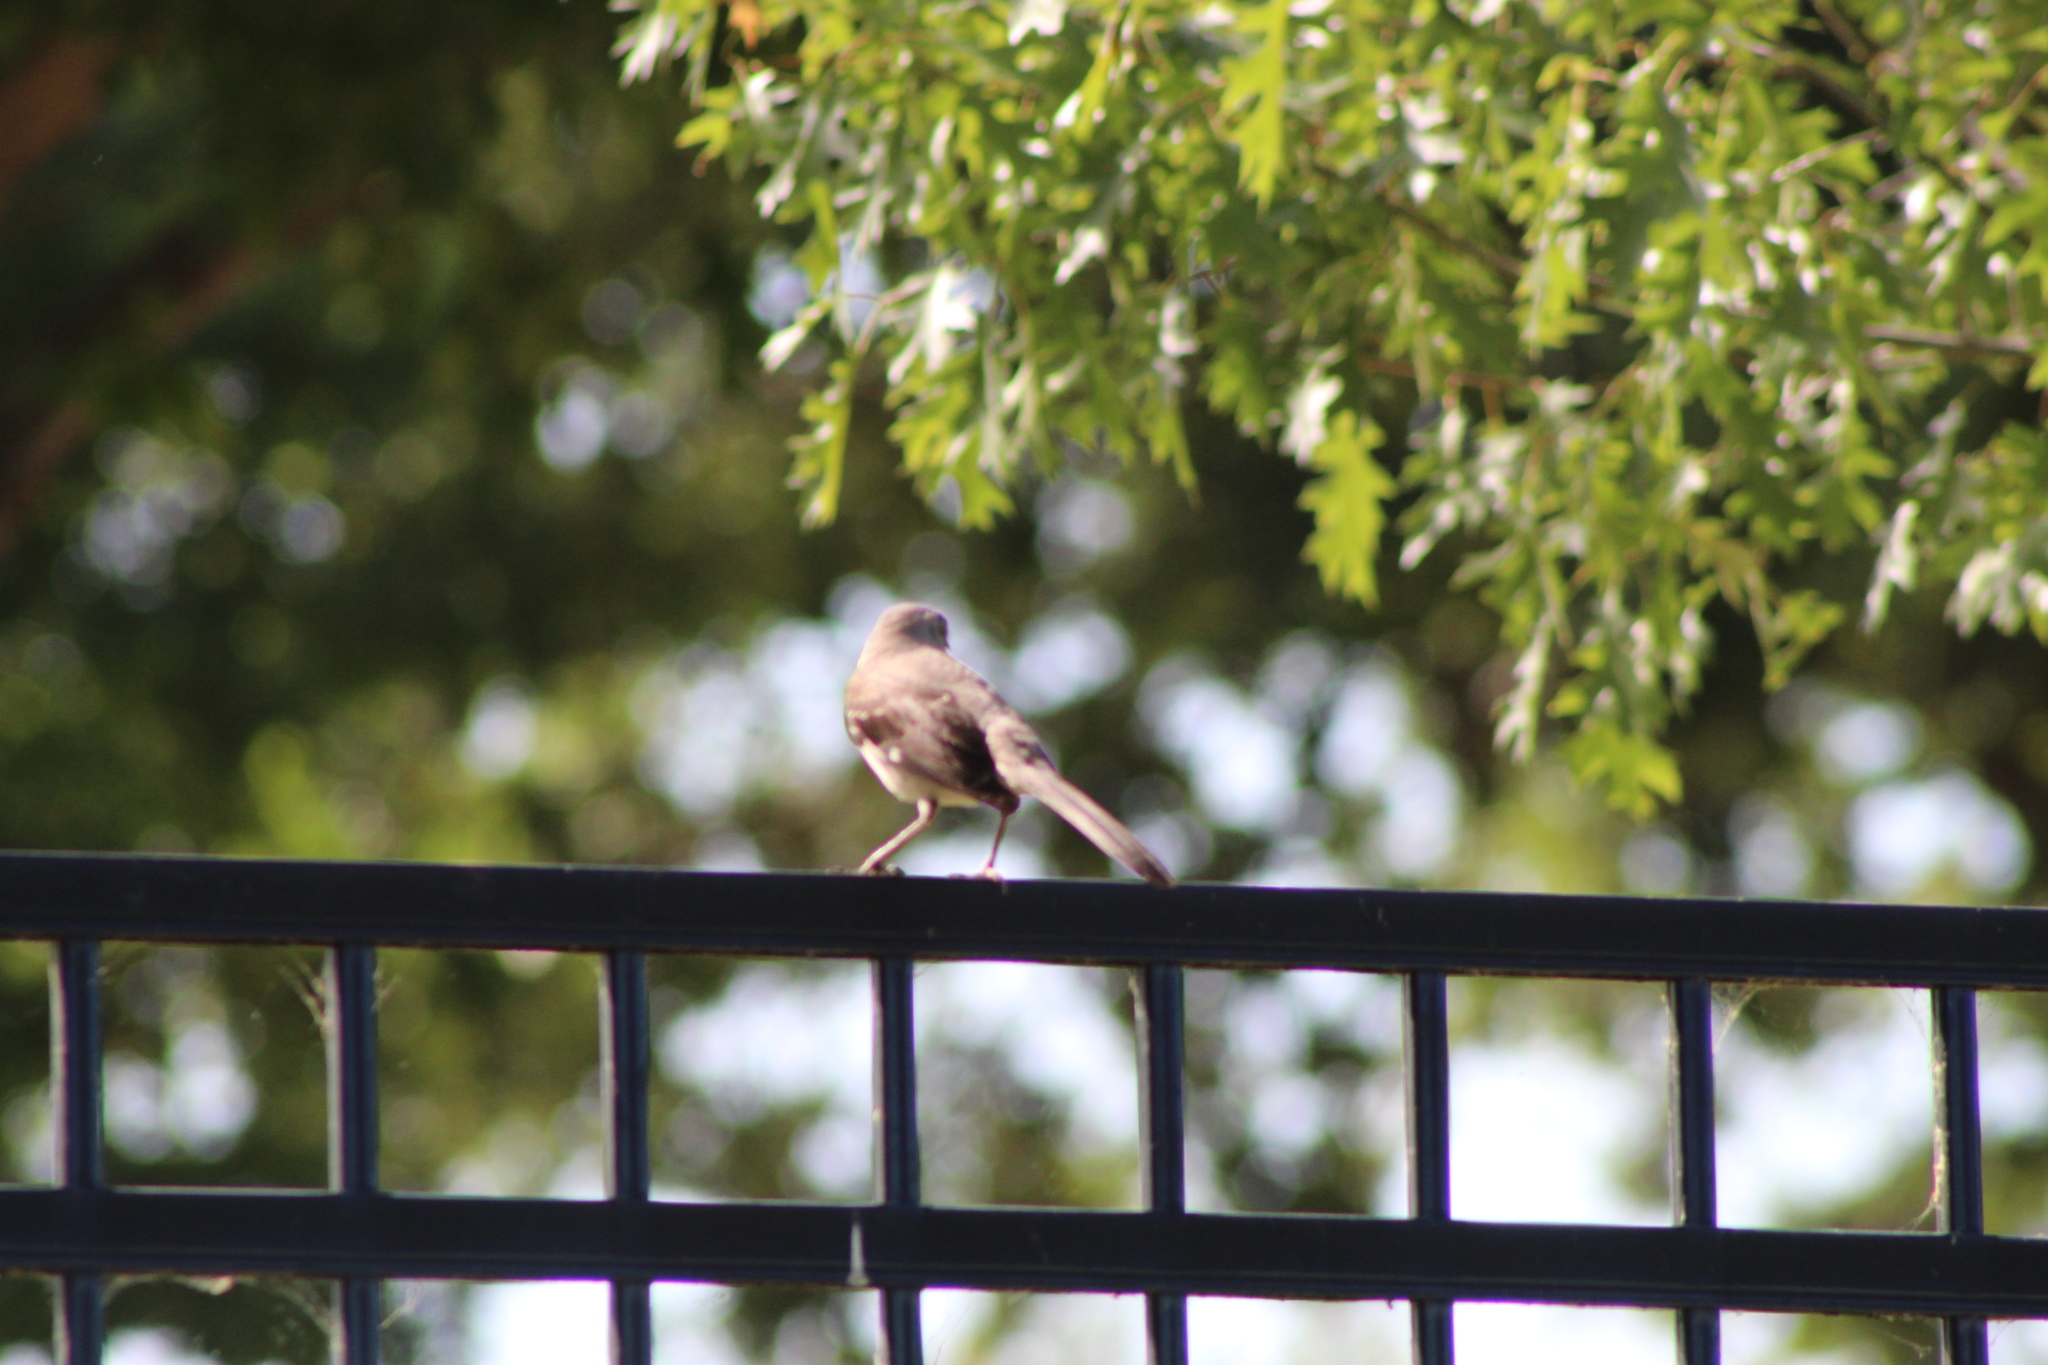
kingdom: Animalia
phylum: Chordata
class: Aves
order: Passeriformes
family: Mimidae
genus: Mimus
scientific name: Mimus polyglottos
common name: Northern mockingbird
